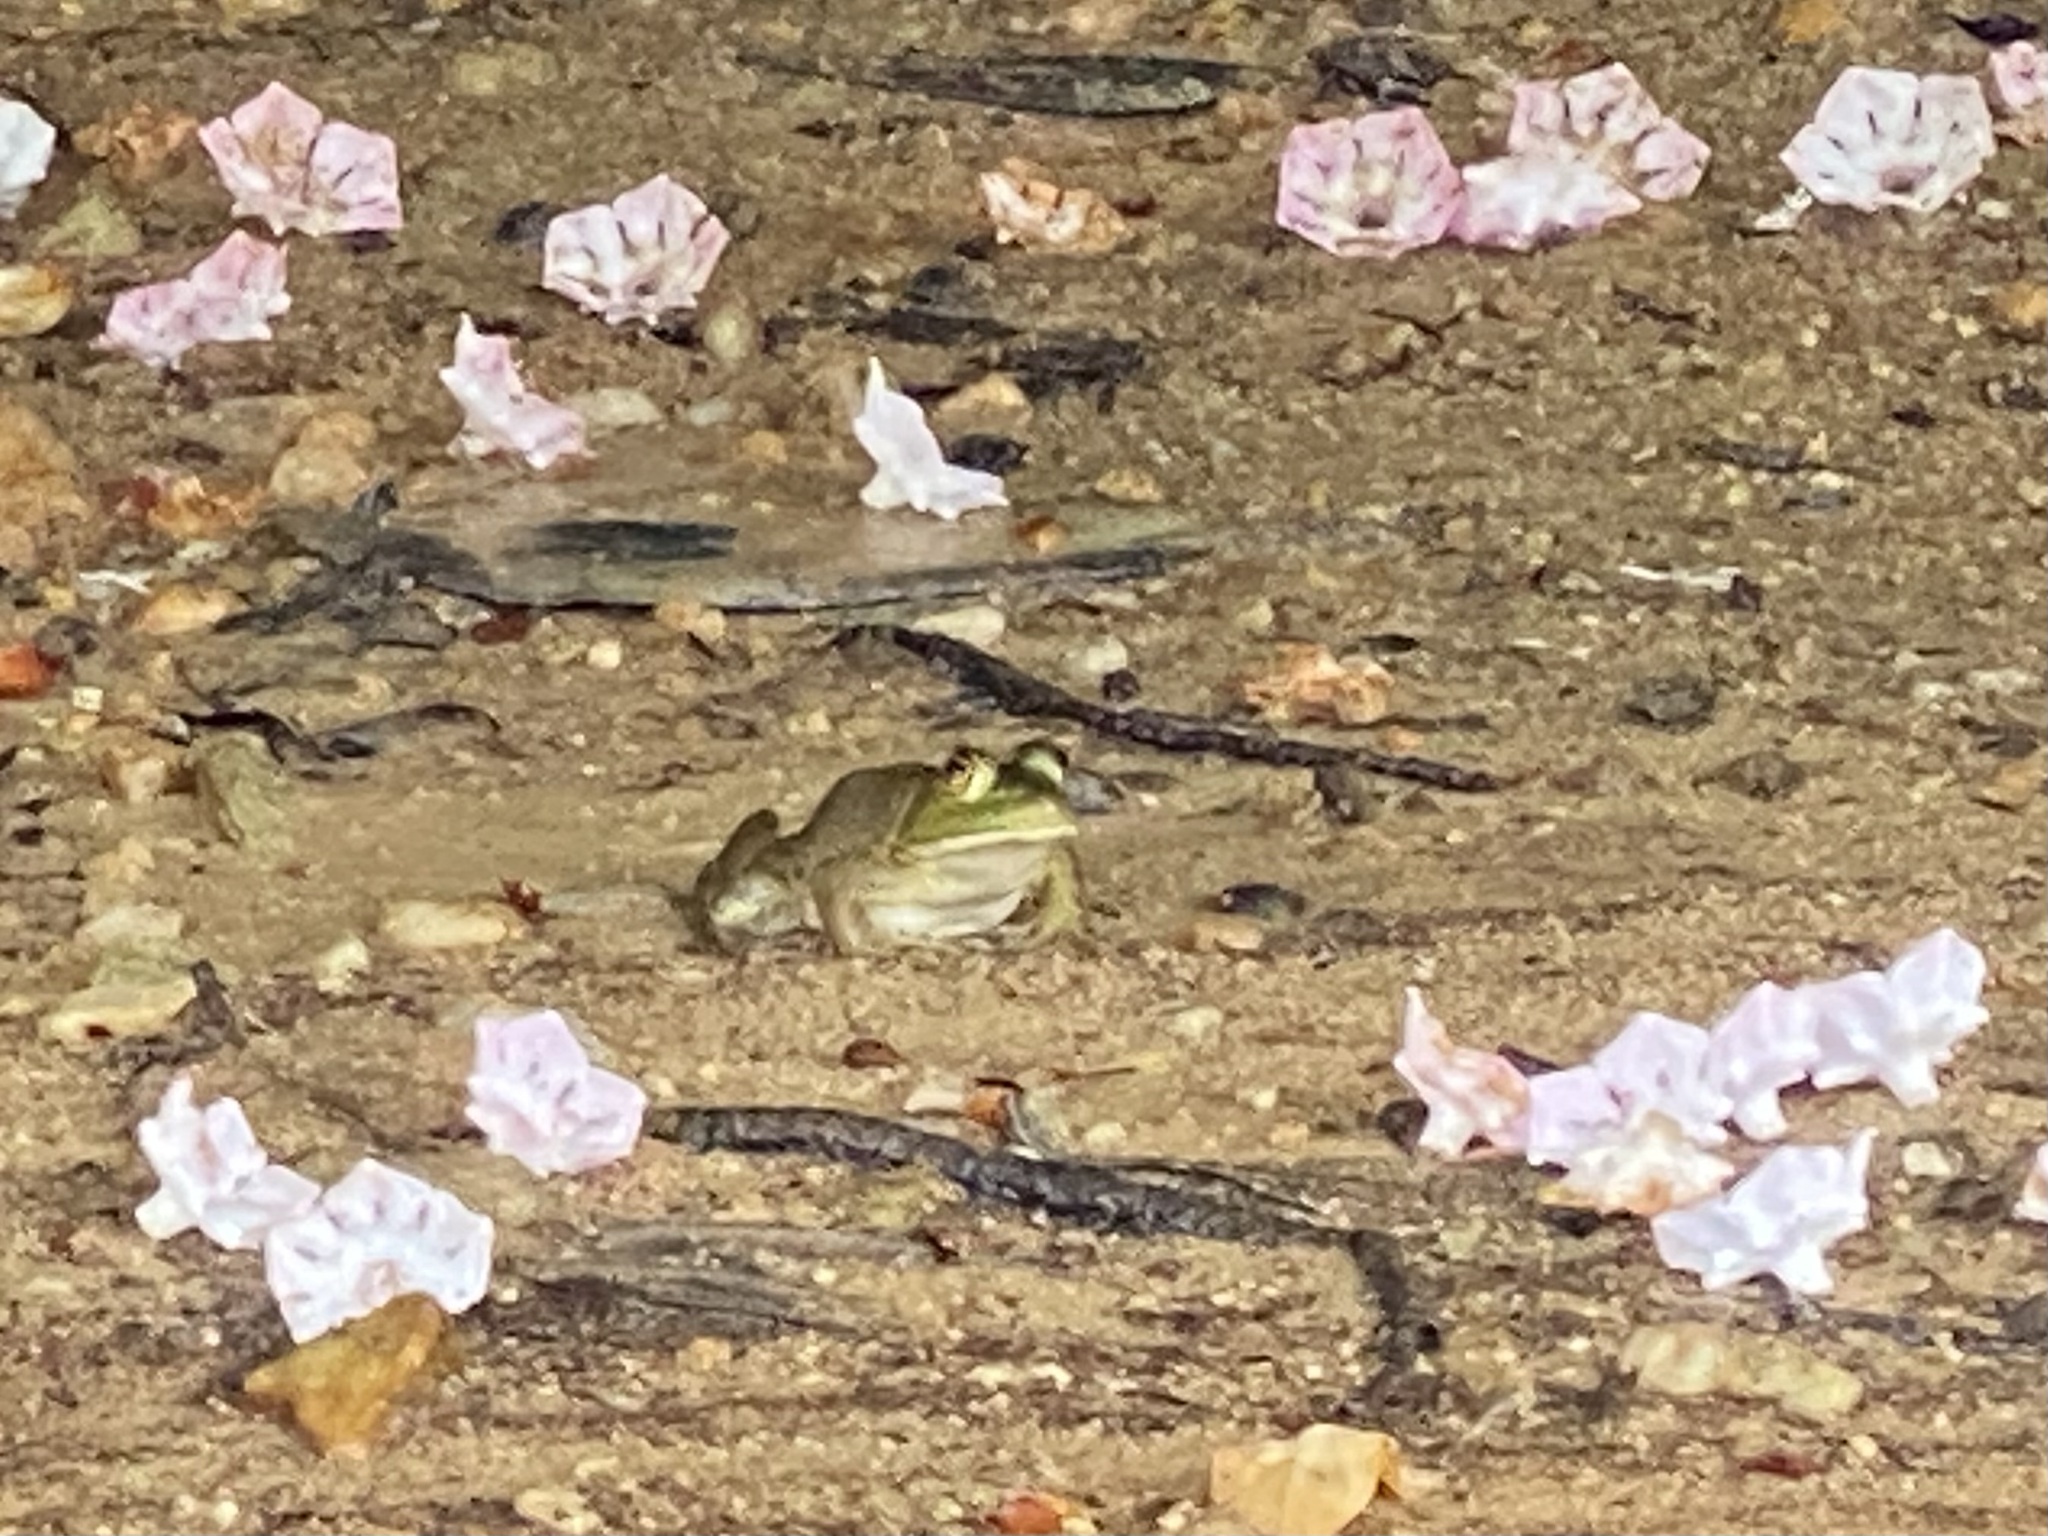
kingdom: Animalia
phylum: Chordata
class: Amphibia
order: Anura
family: Ranidae
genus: Lithobates
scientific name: Lithobates catesbeianus
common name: American bullfrog
